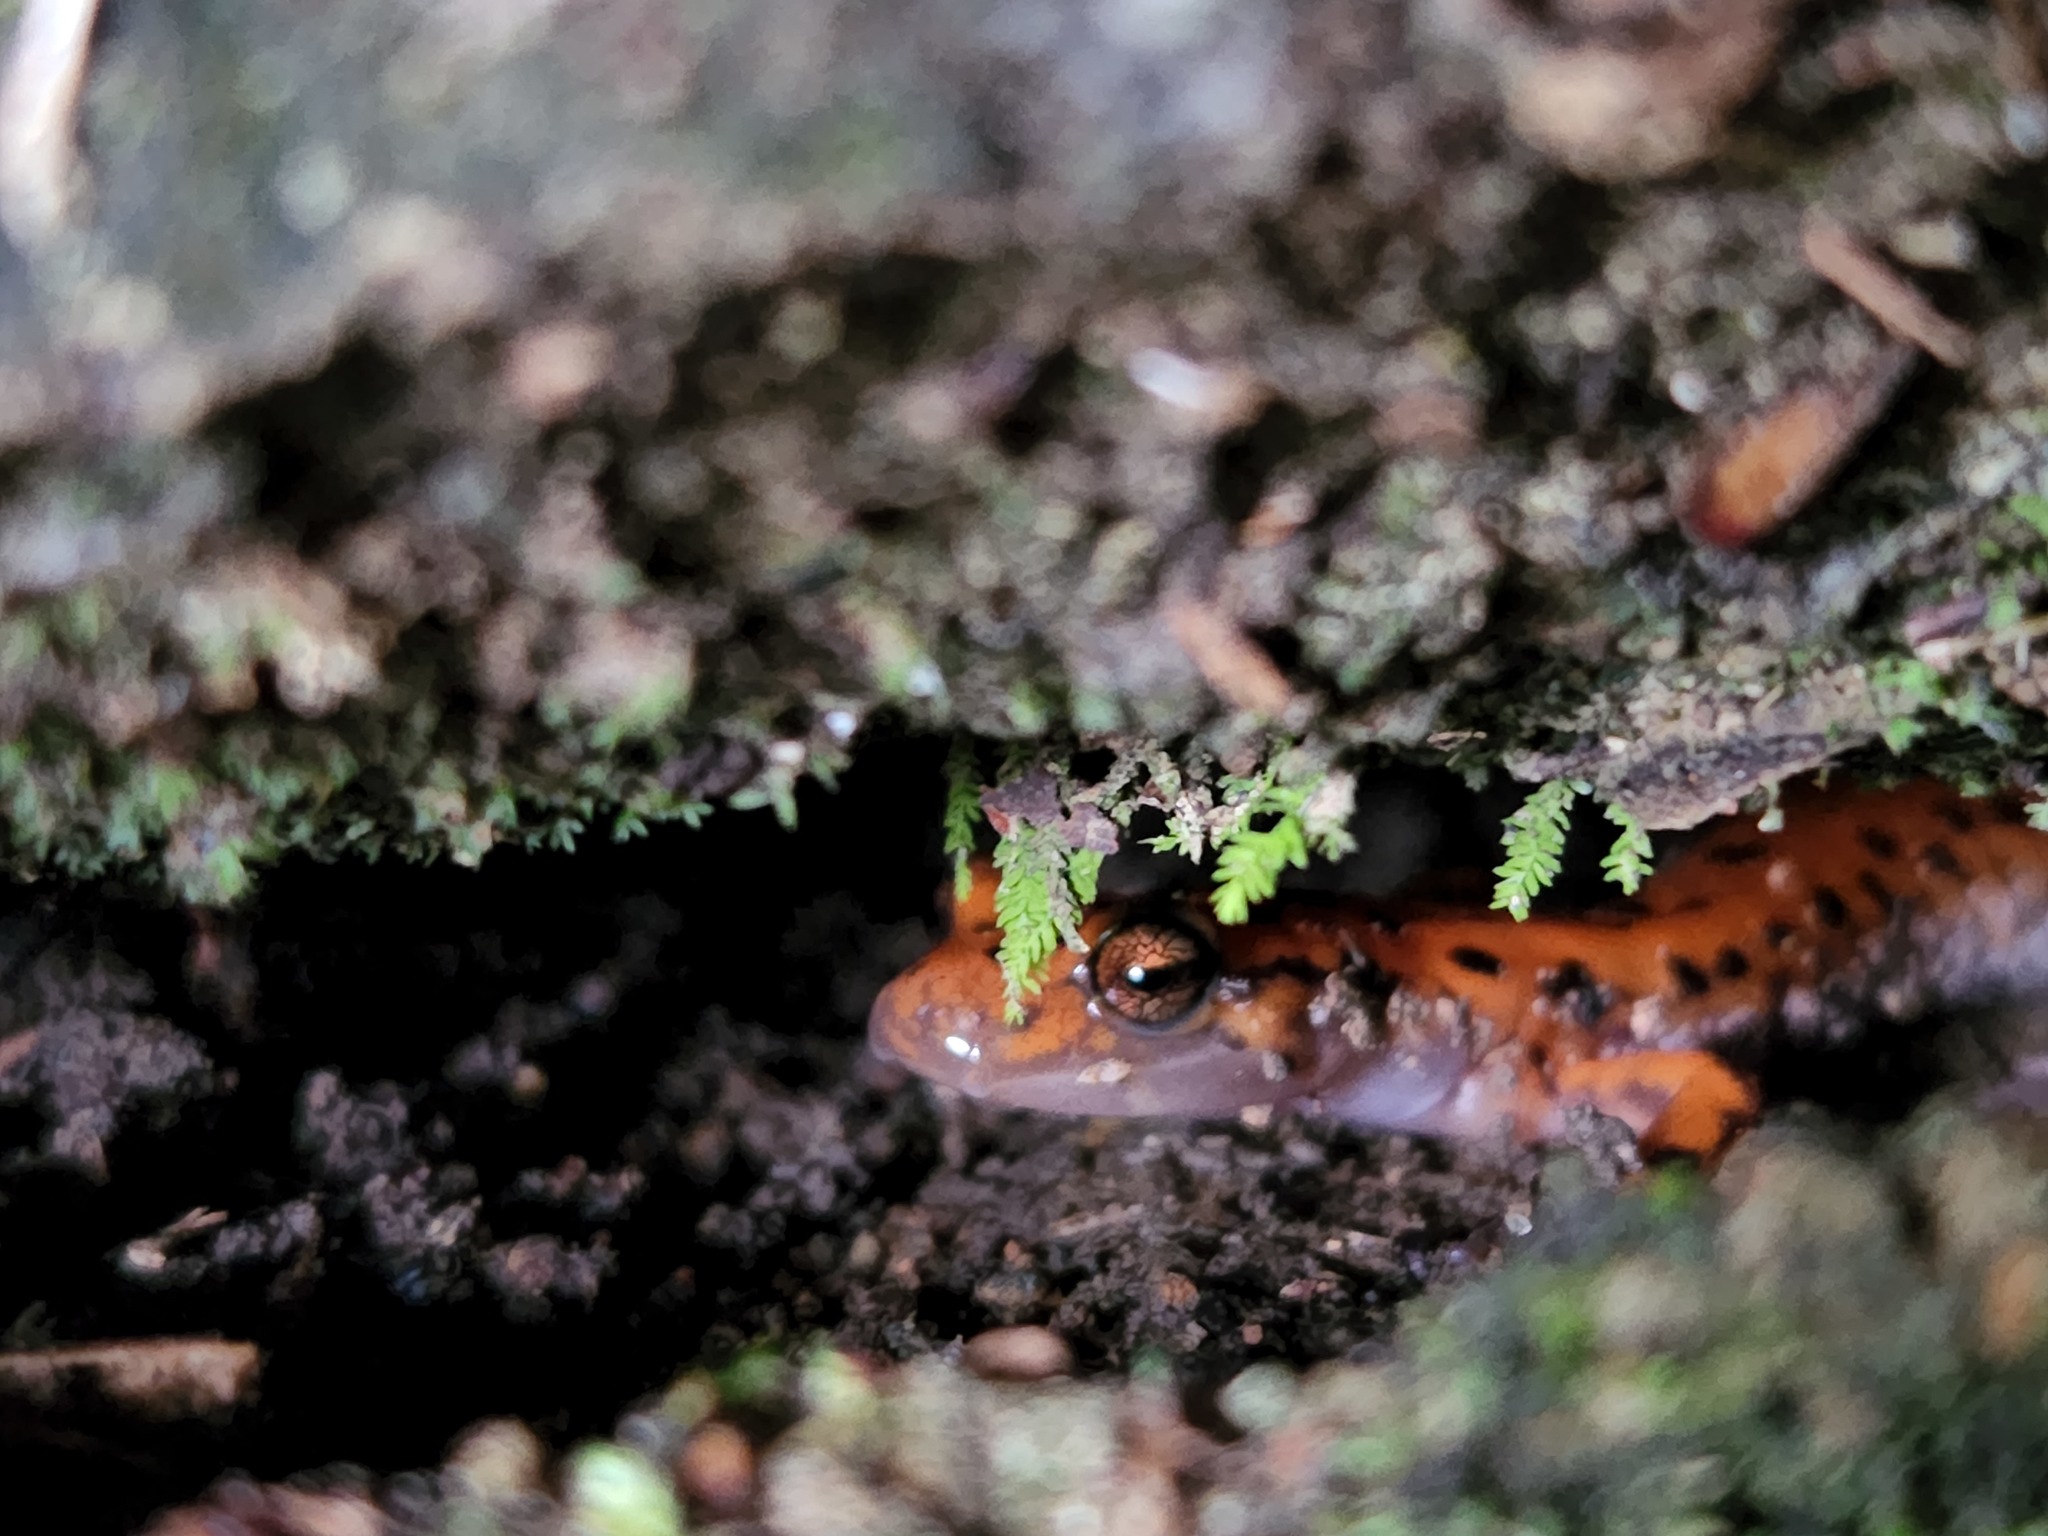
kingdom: Animalia
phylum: Chordata
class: Amphibia
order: Caudata
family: Plethodontidae
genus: Eurycea
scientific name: Eurycea lucifuga
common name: Cave salamander
